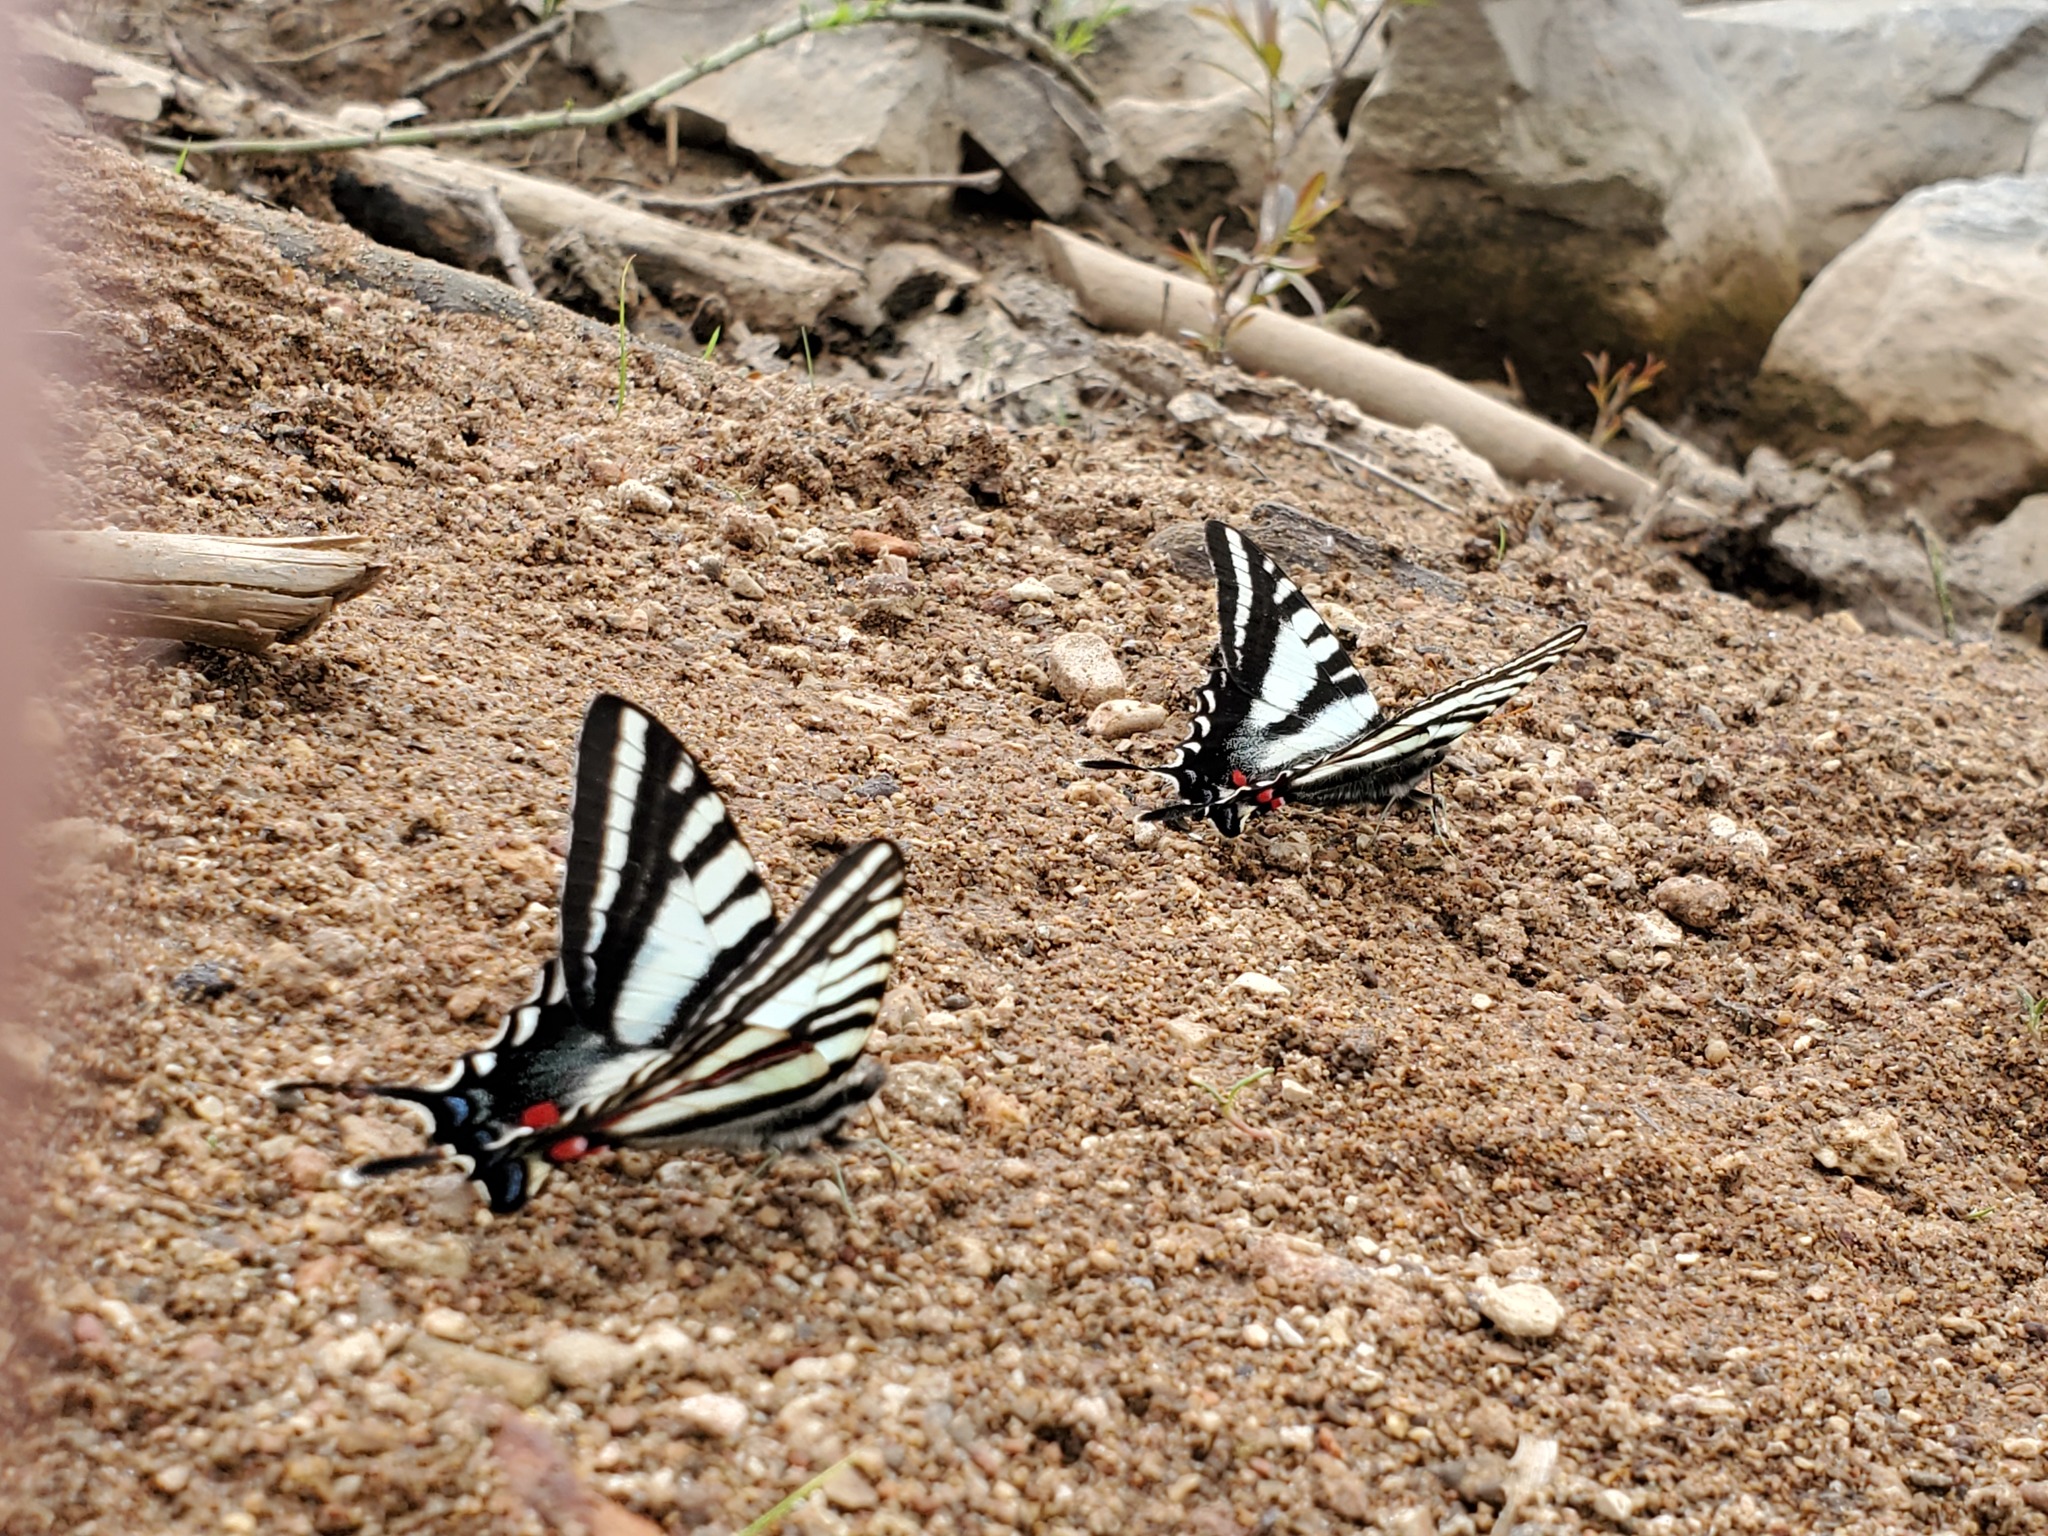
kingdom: Animalia
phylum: Arthropoda
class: Insecta
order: Lepidoptera
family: Papilionidae
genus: Protographium
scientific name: Protographium marcellus
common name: Zebra swallowtail
